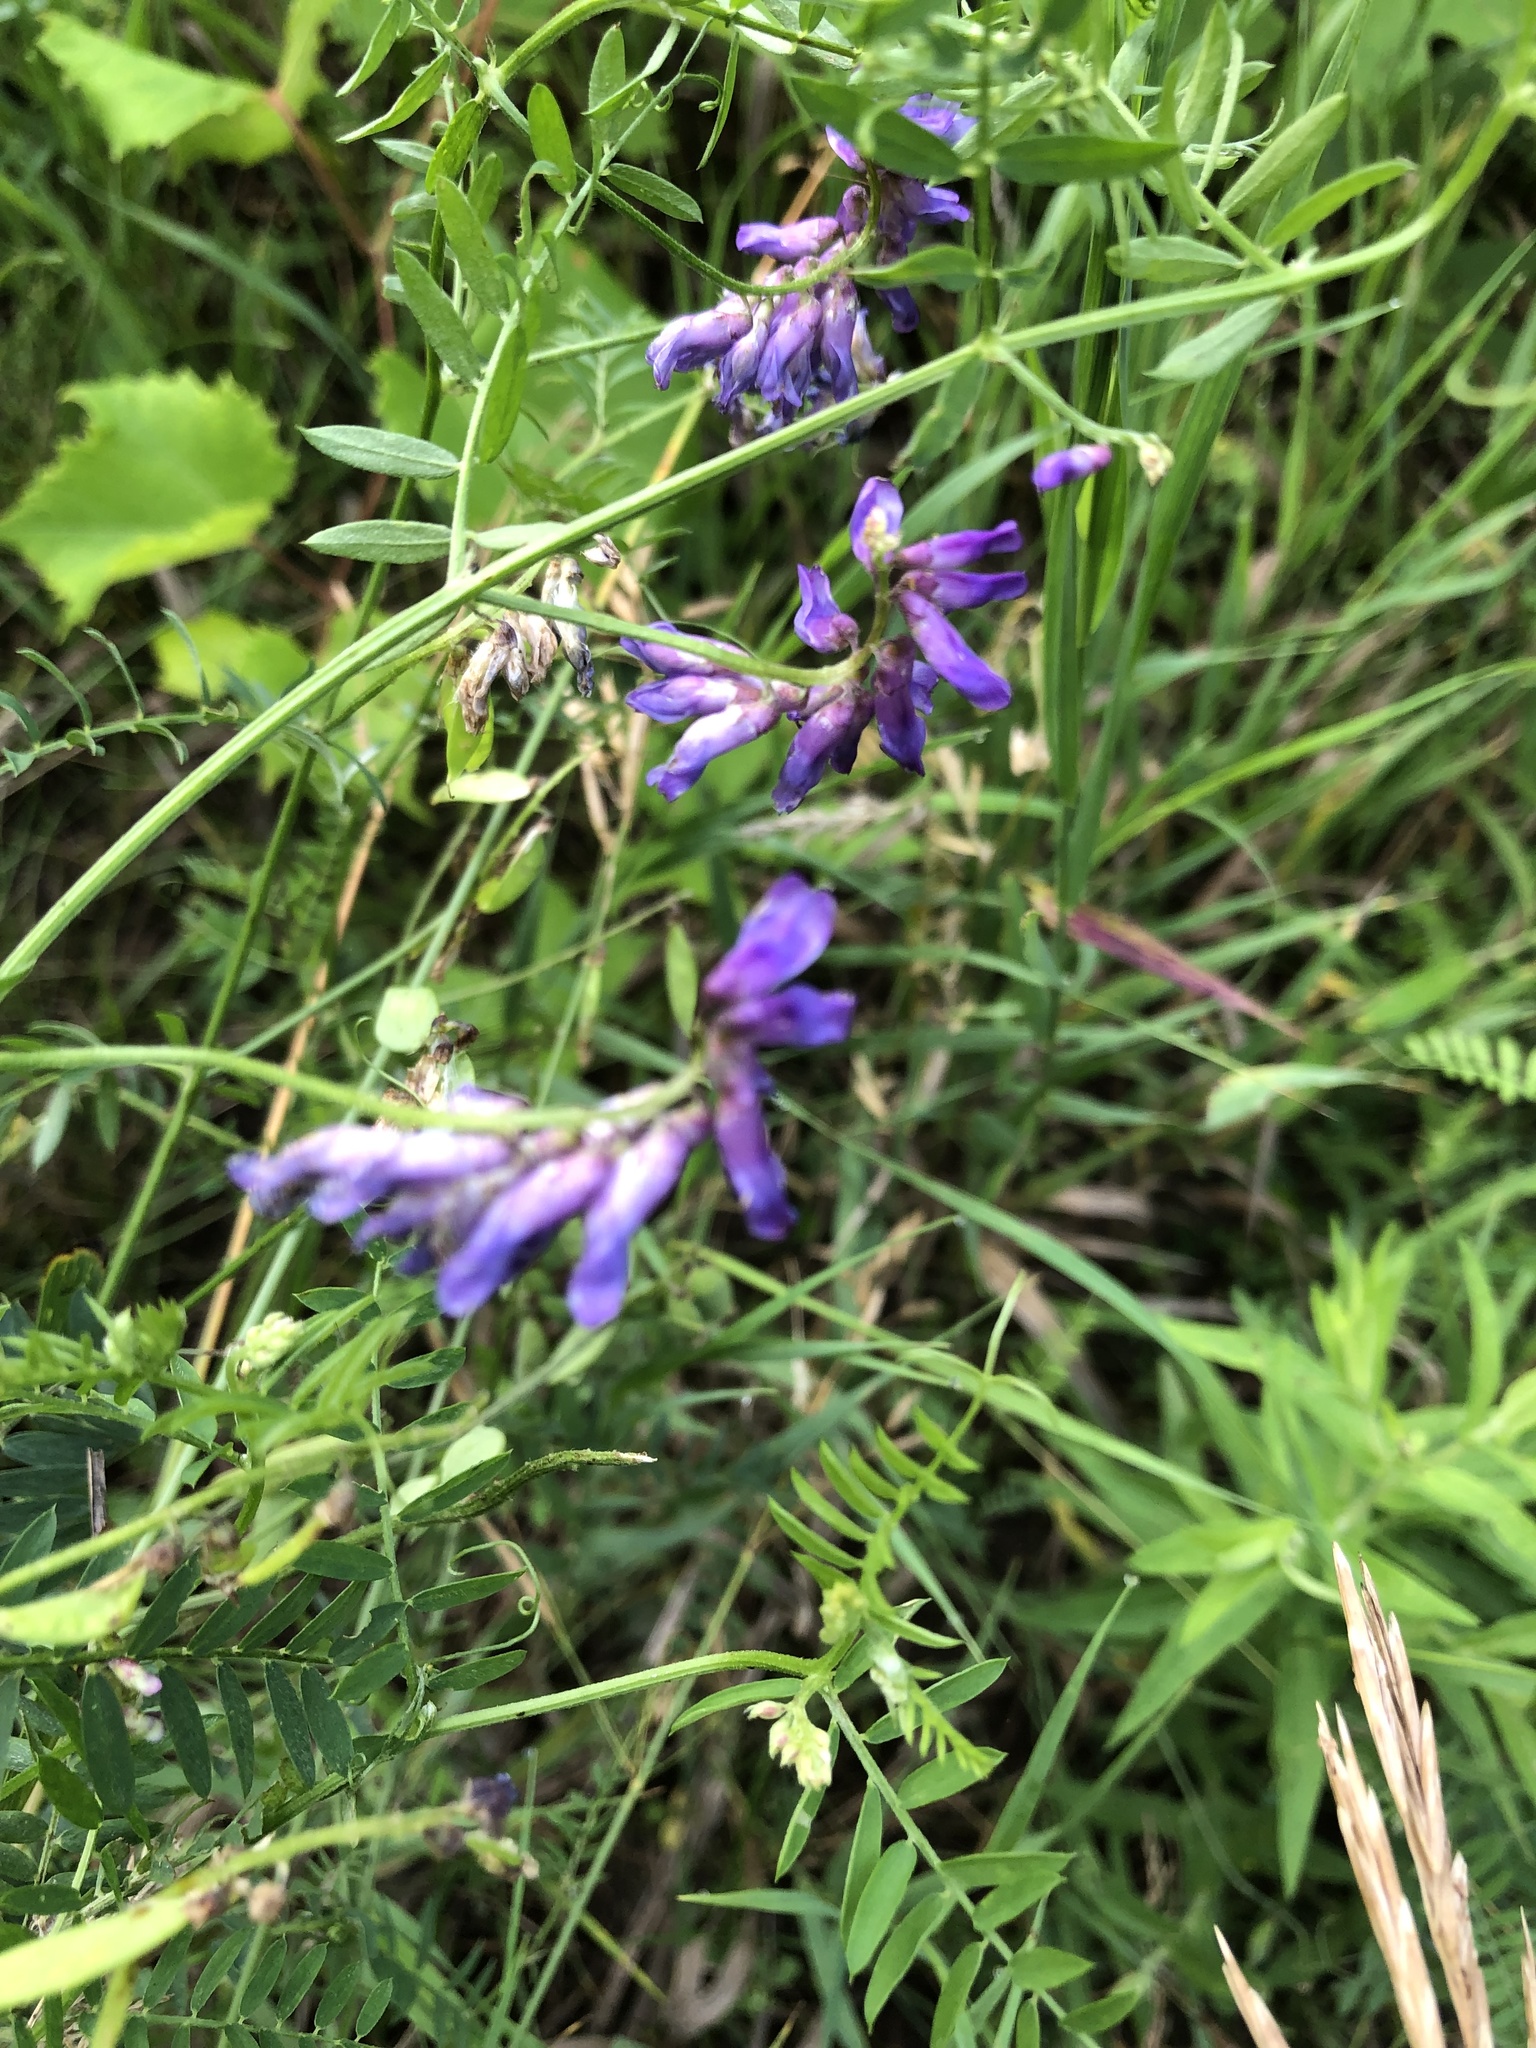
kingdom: Plantae
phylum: Tracheophyta
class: Magnoliopsida
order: Fabales
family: Fabaceae
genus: Vicia
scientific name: Vicia cracca
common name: Bird vetch
